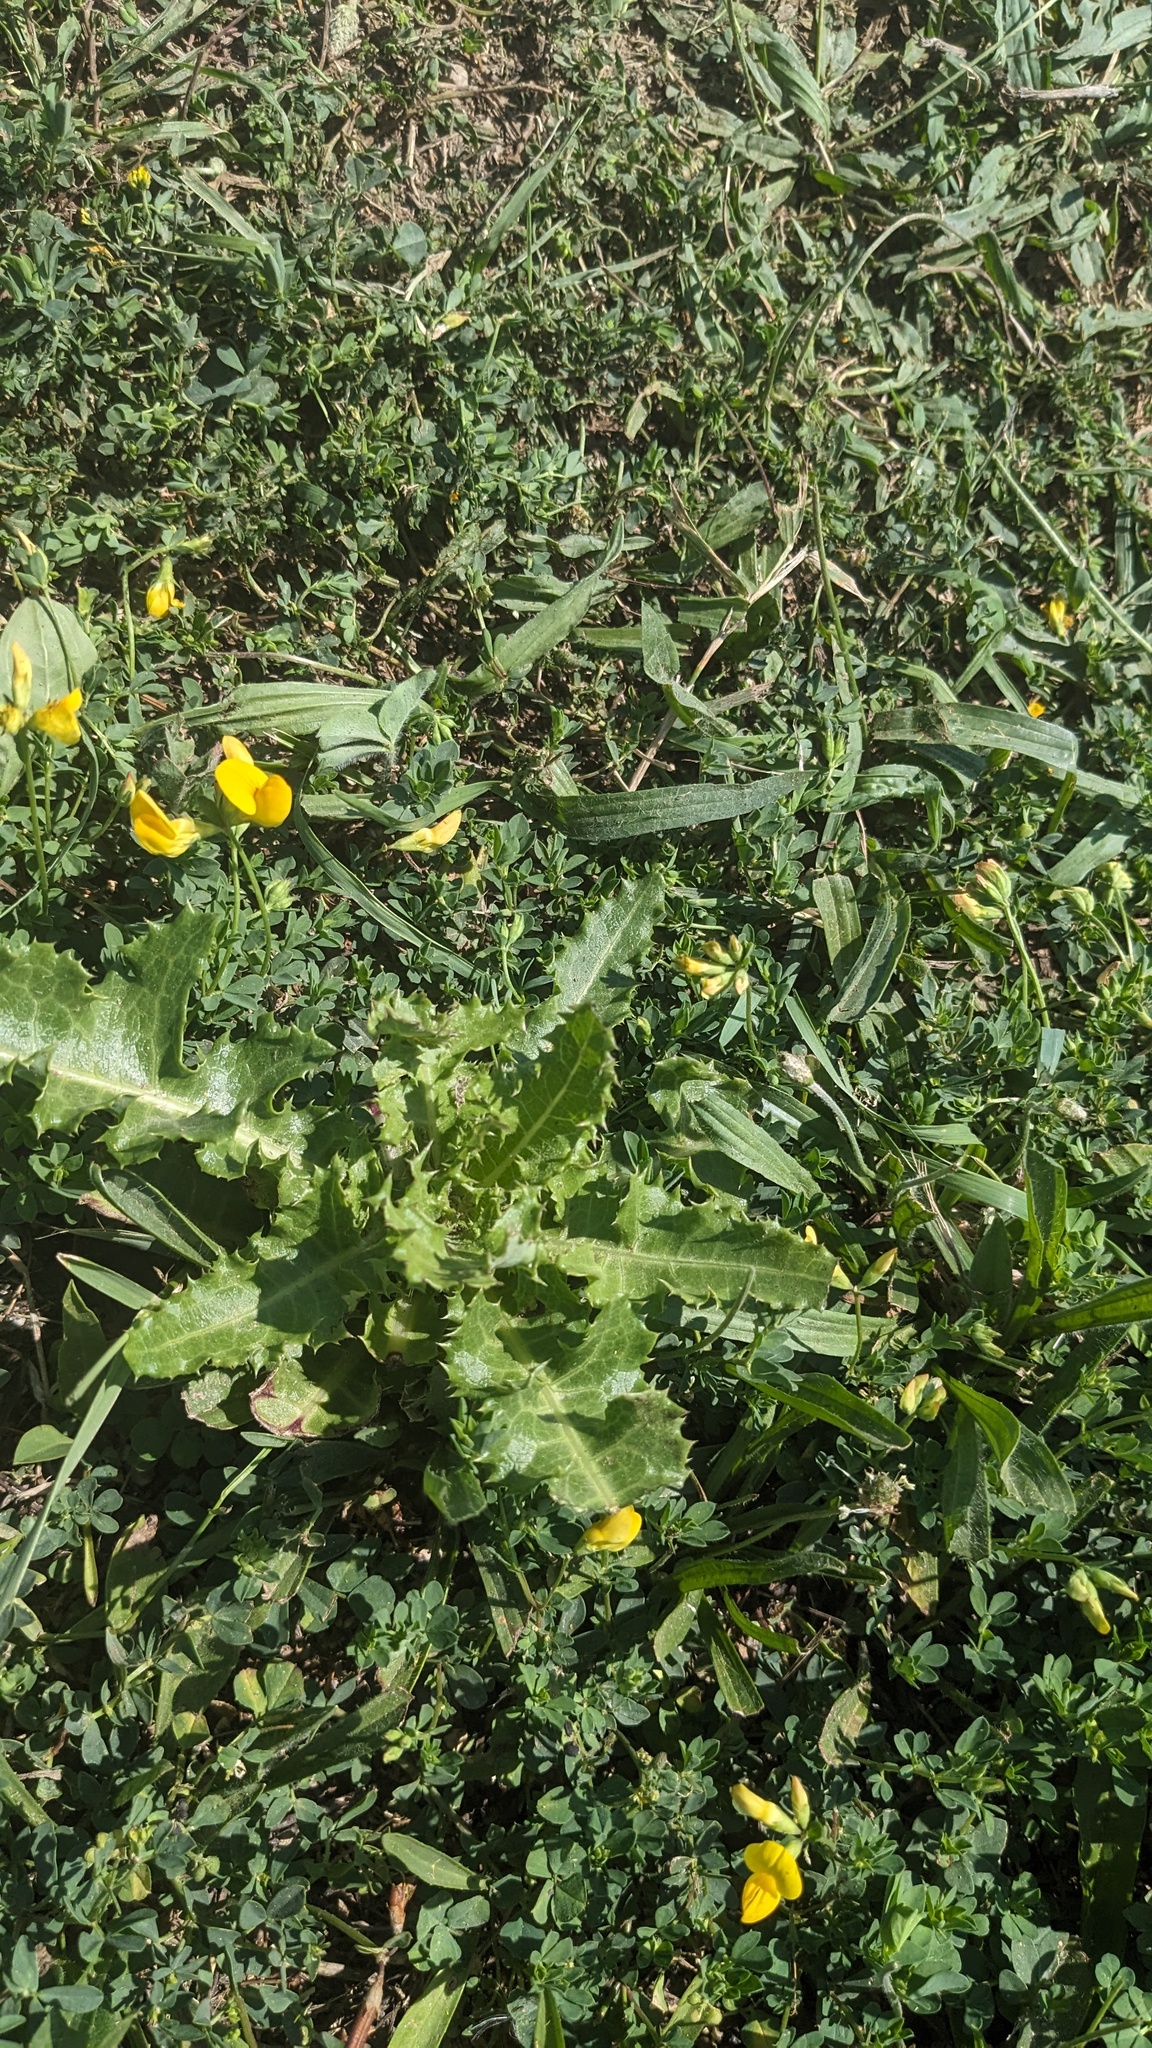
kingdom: Plantae
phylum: Tracheophyta
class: Magnoliopsida
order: Asterales
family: Asteraceae
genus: Cirsium
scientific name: Cirsium arvense
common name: Creeping thistle
